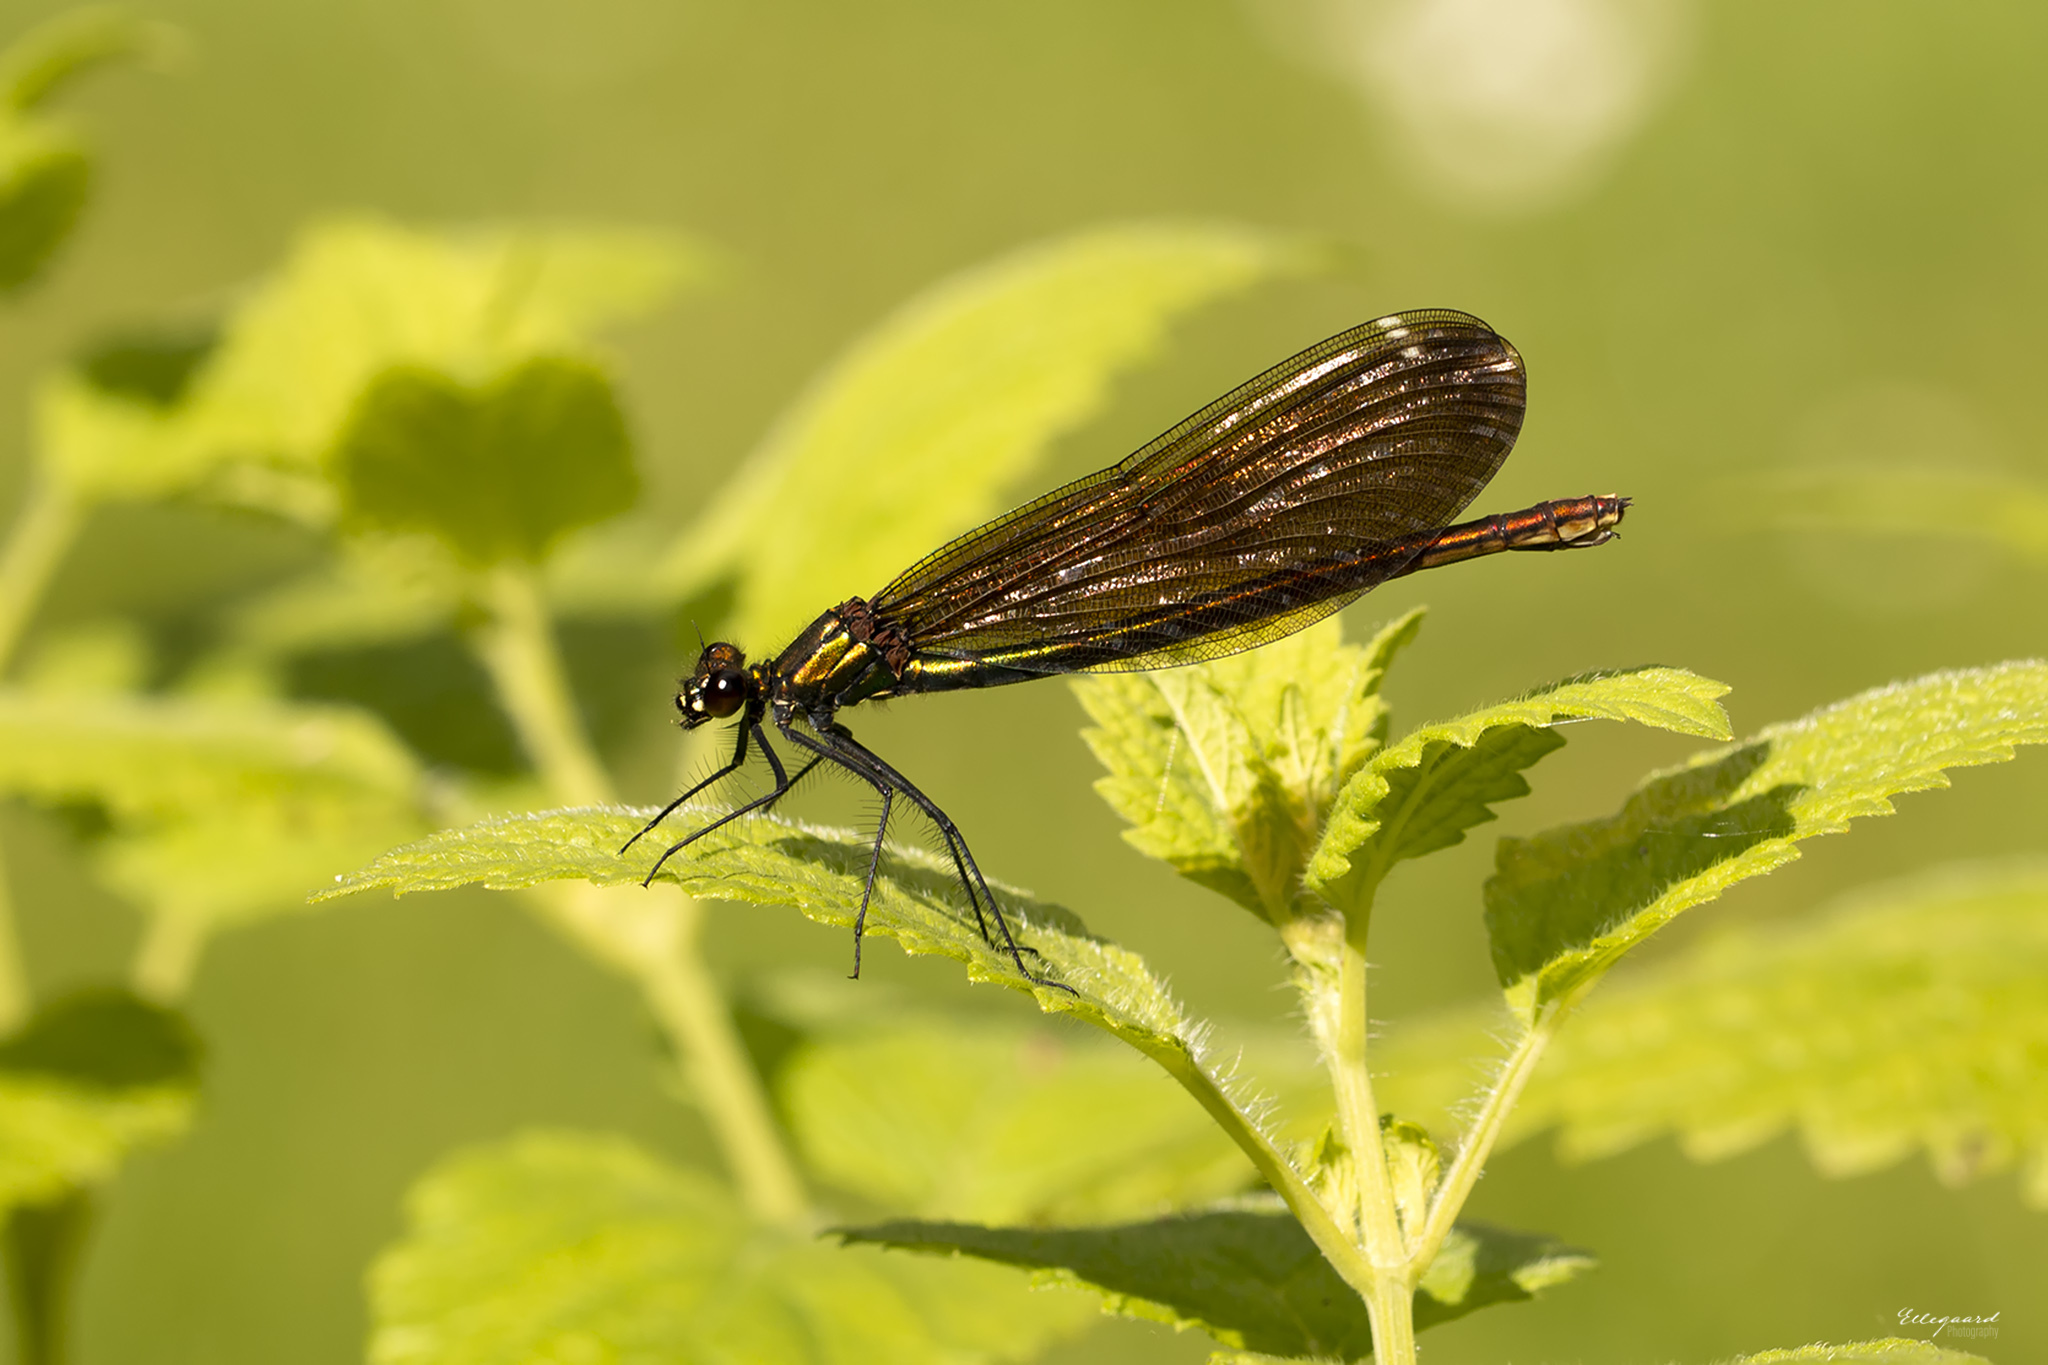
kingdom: Animalia
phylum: Arthropoda
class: Insecta
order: Odonata
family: Calopterygidae
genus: Calopteryx
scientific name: Calopteryx virgo
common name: Beautiful demoiselle
